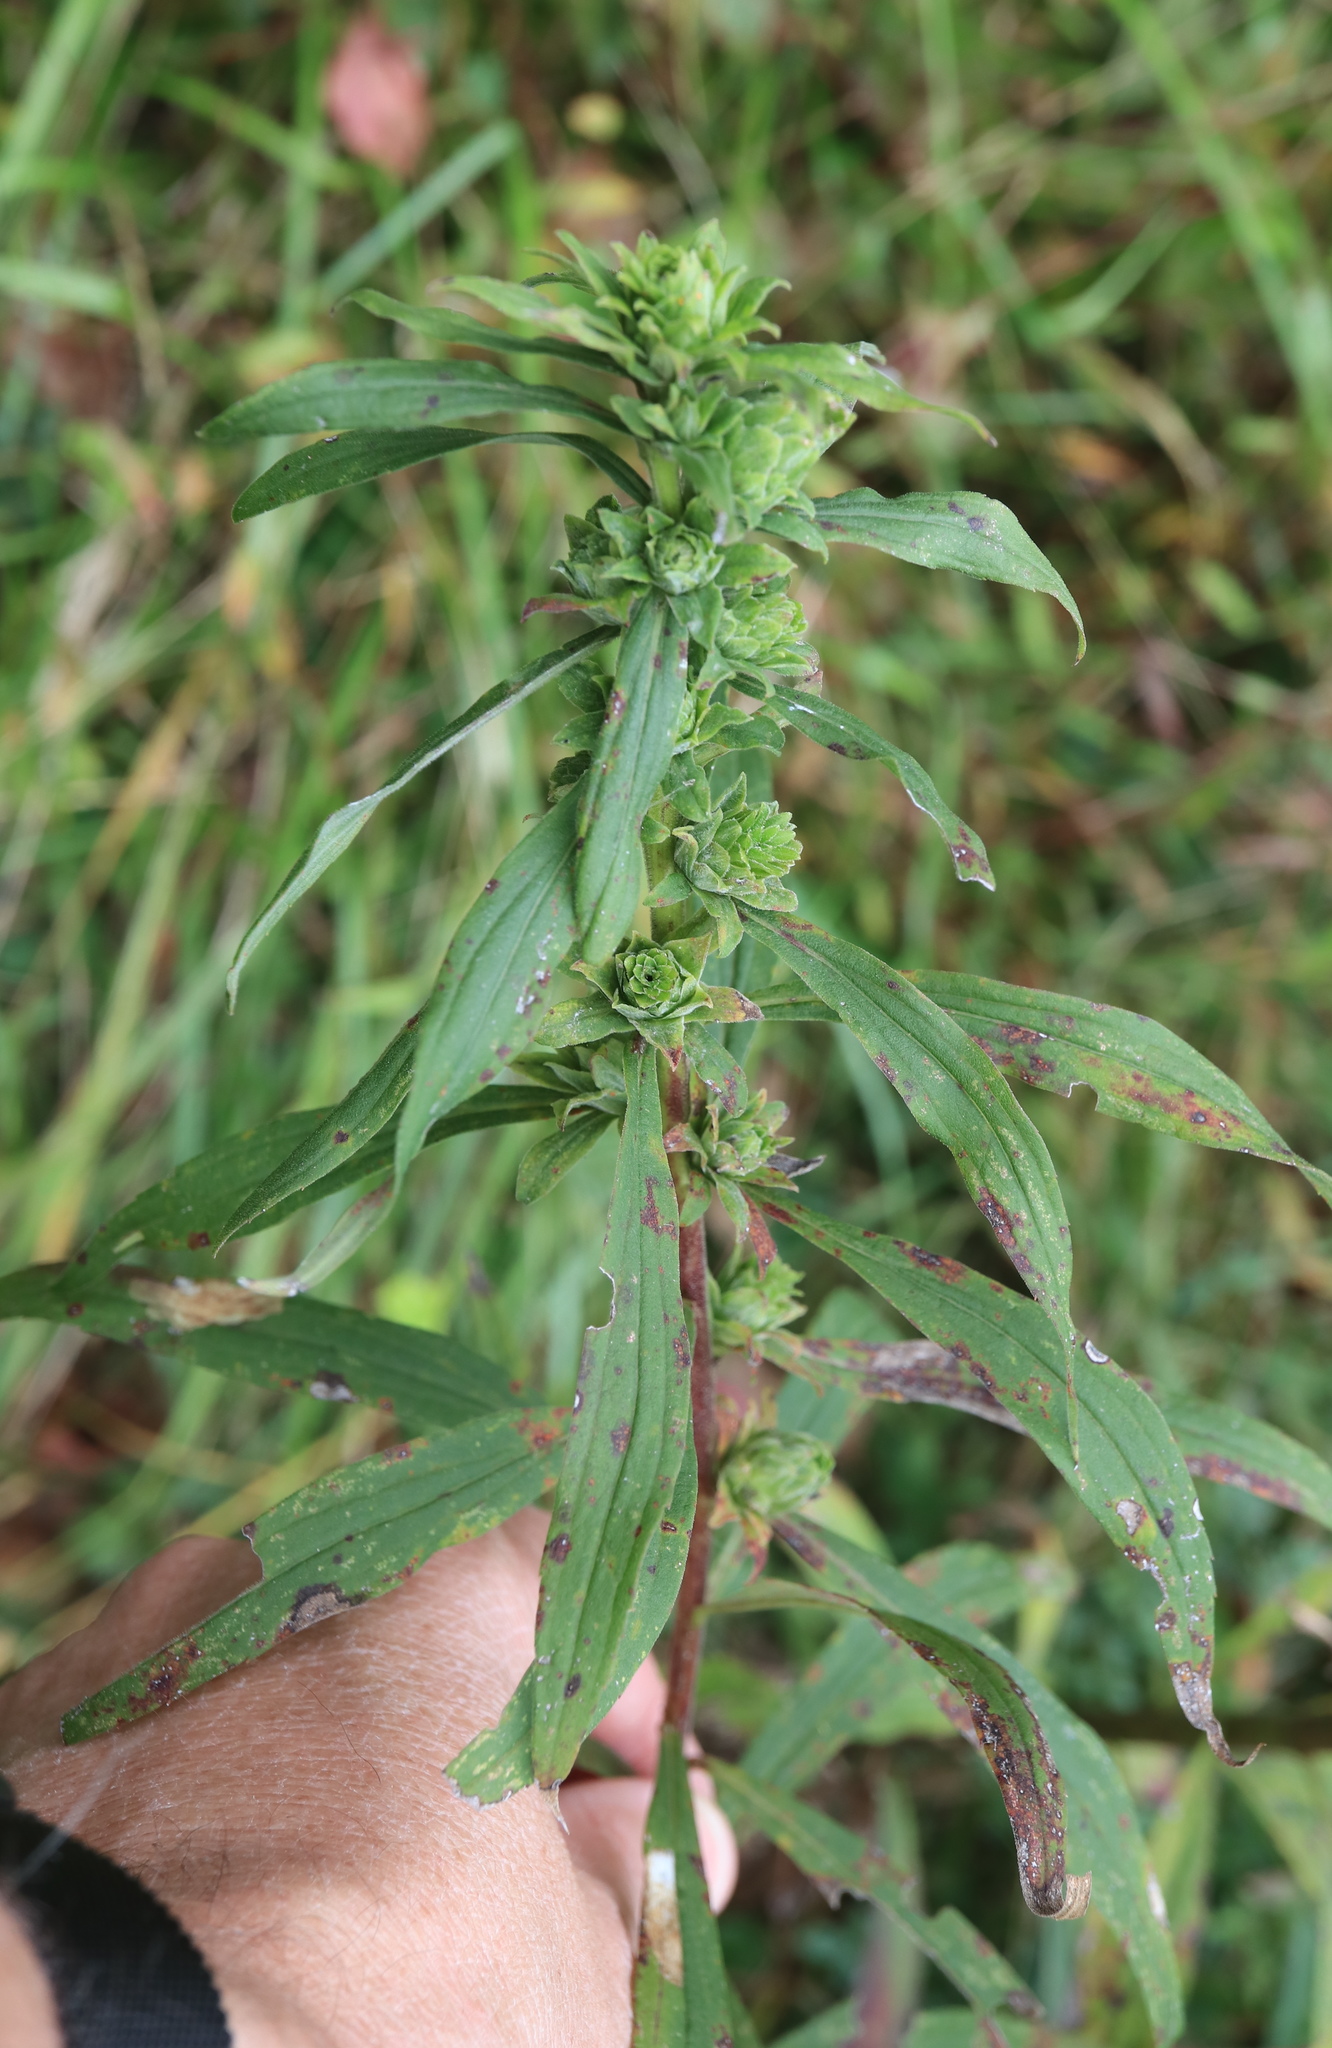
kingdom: Animalia
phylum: Arthropoda
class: Insecta
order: Diptera
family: Tephritidae
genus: Procecidochares
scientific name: Procecidochares atra
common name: Goldenrod brussels sprout gall fly
